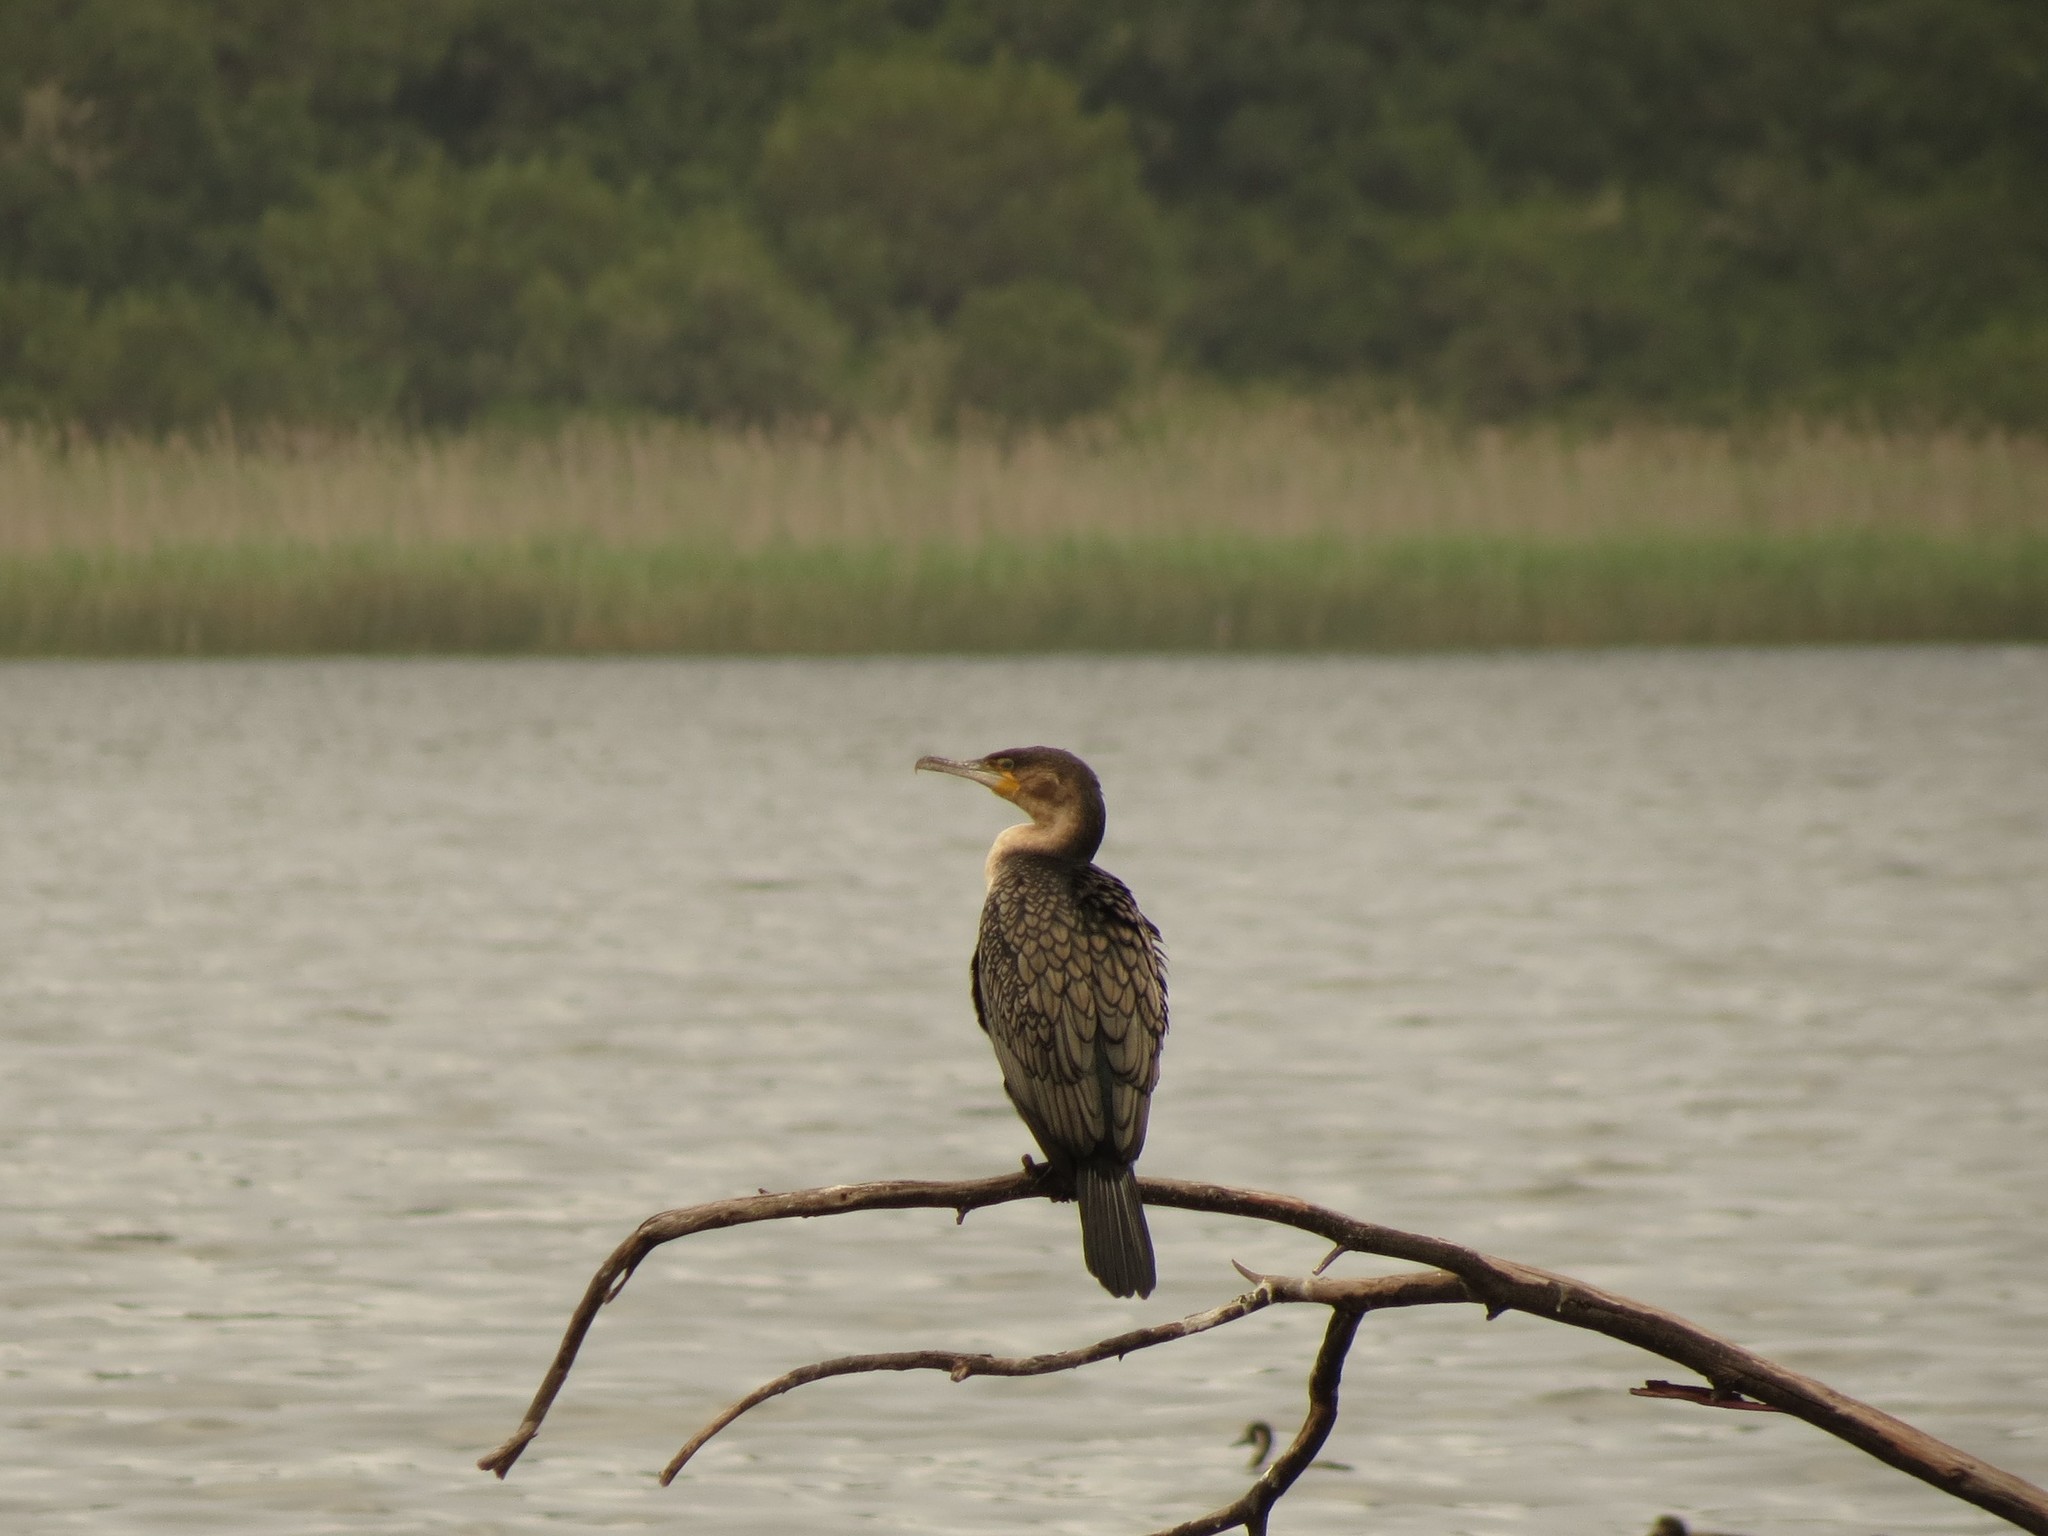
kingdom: Animalia
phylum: Chordata
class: Aves
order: Suliformes
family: Phalacrocoracidae
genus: Phalacrocorax
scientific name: Phalacrocorax carbo
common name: Great cormorant
